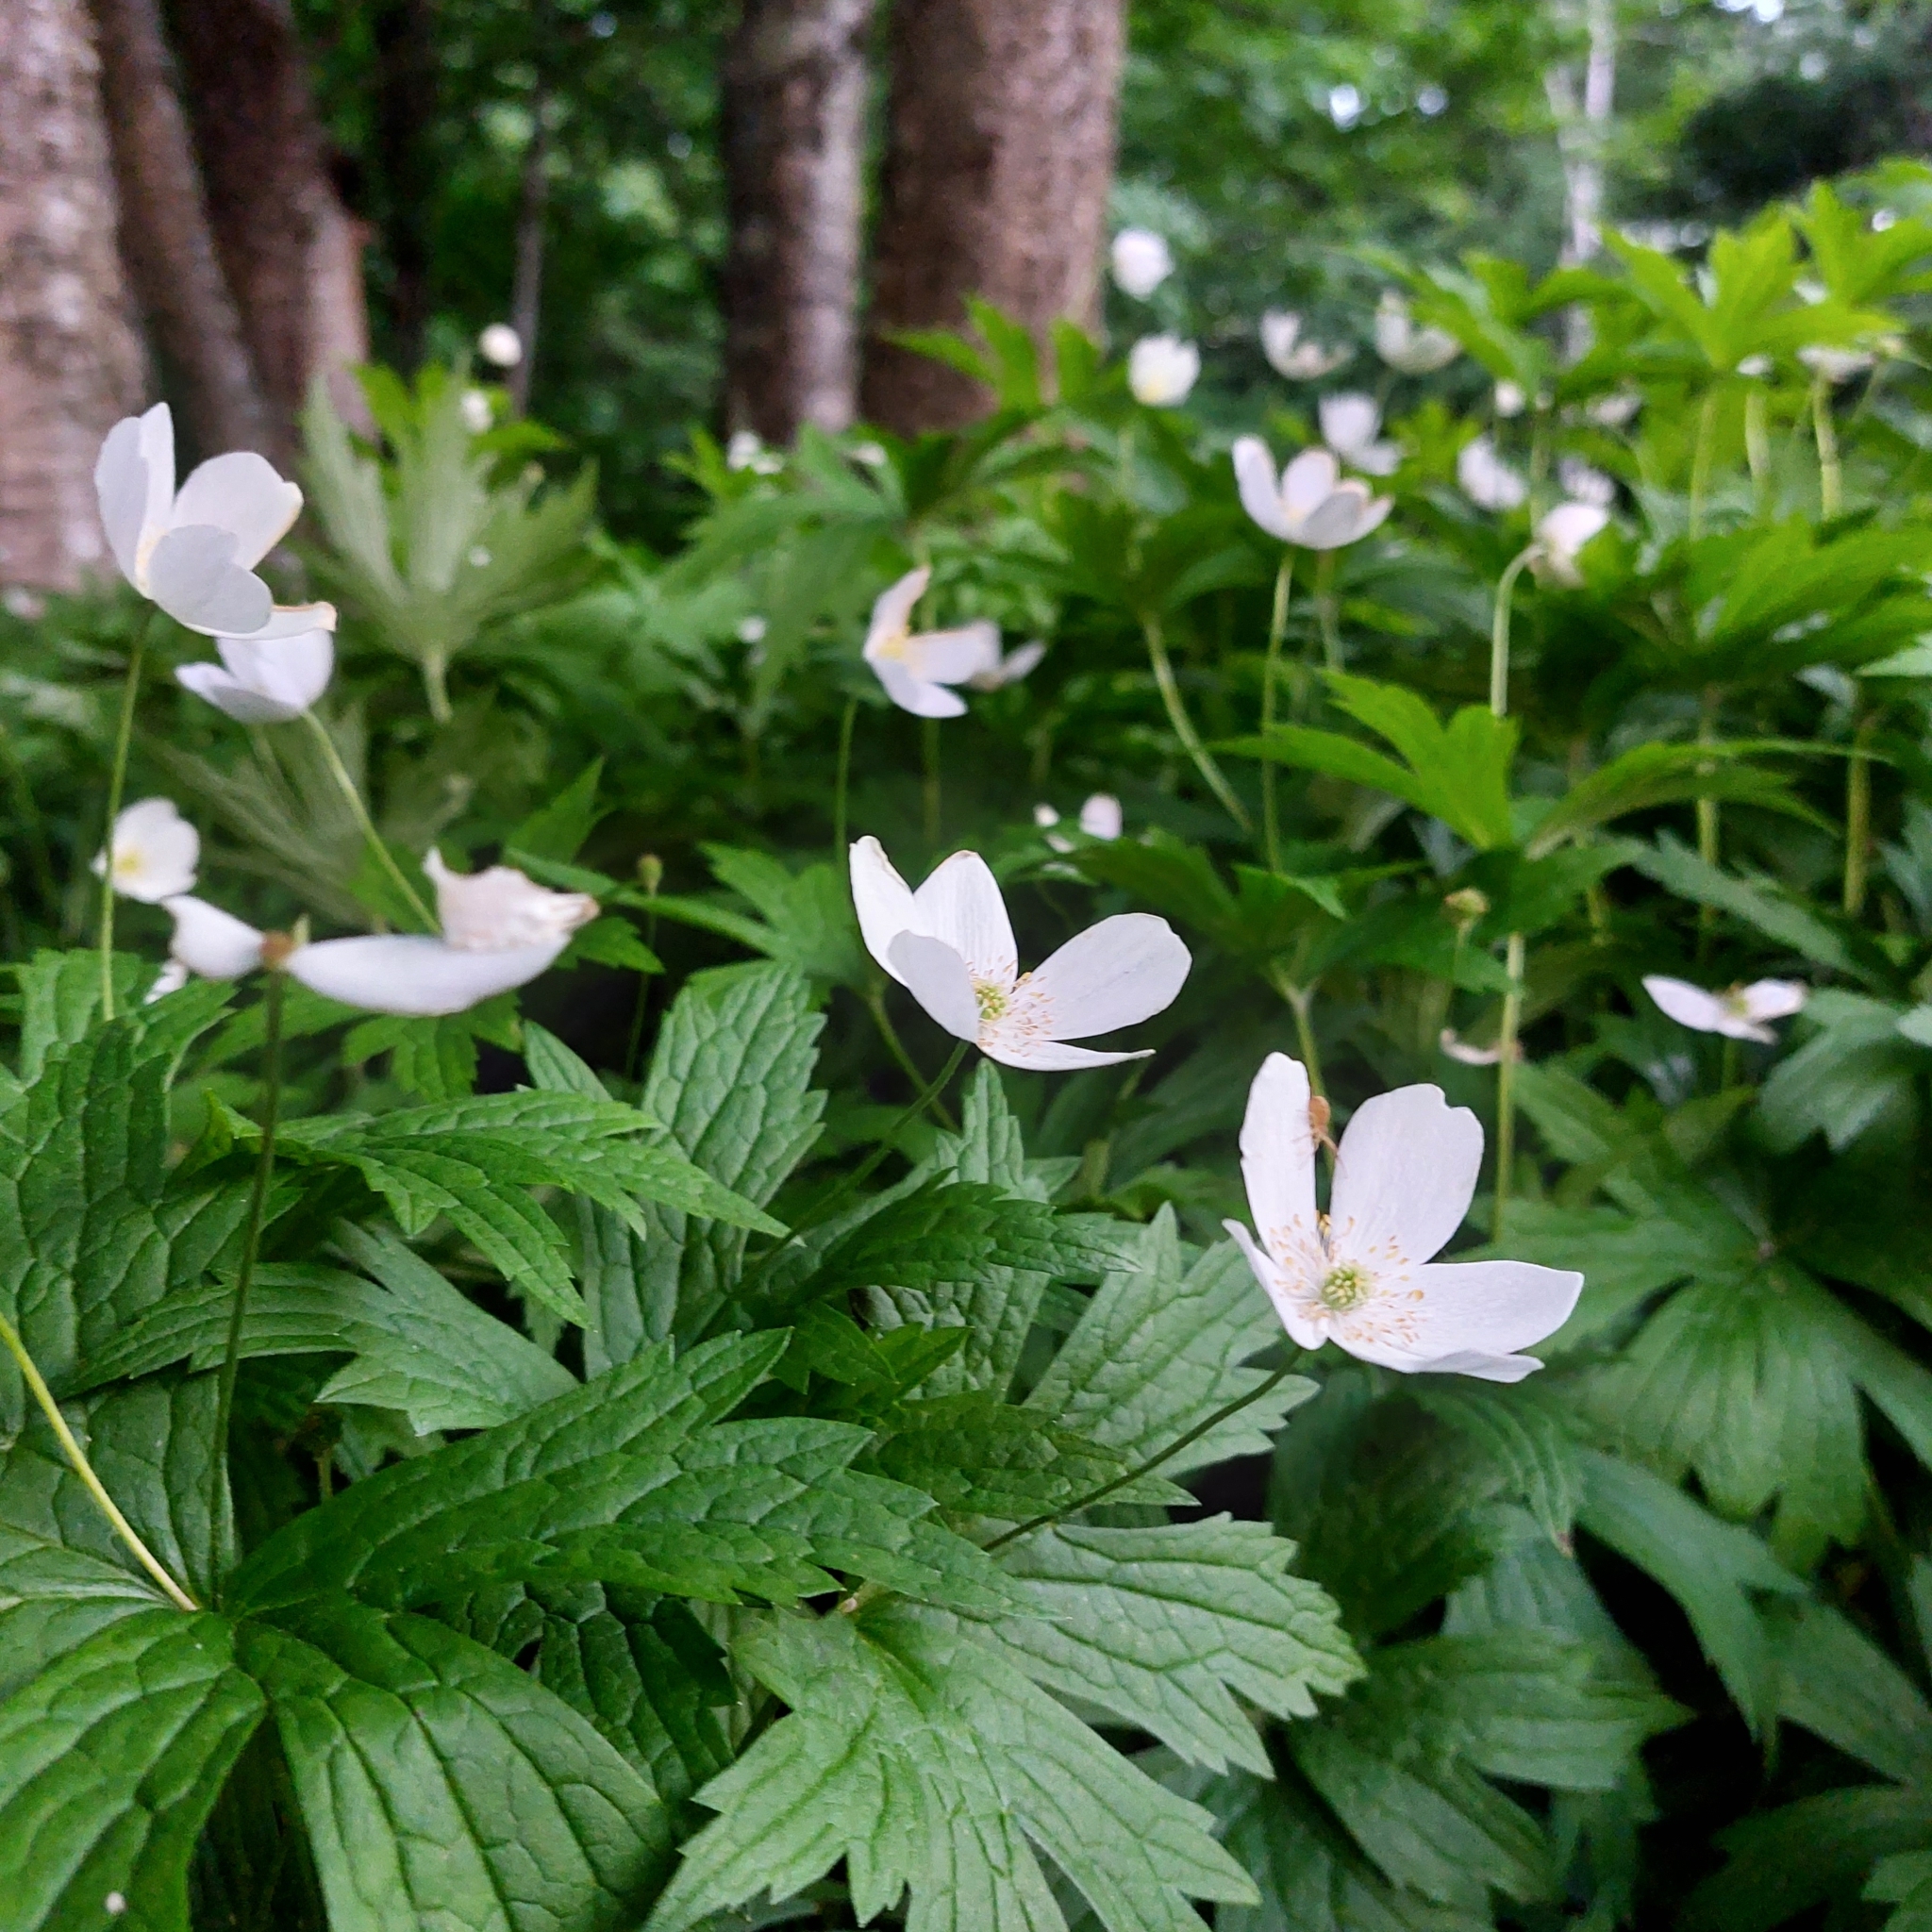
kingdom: Plantae
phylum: Tracheophyta
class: Magnoliopsida
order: Ranunculales
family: Ranunculaceae
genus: Anemonastrum
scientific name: Anemonastrum canadense
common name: Canada anemone
